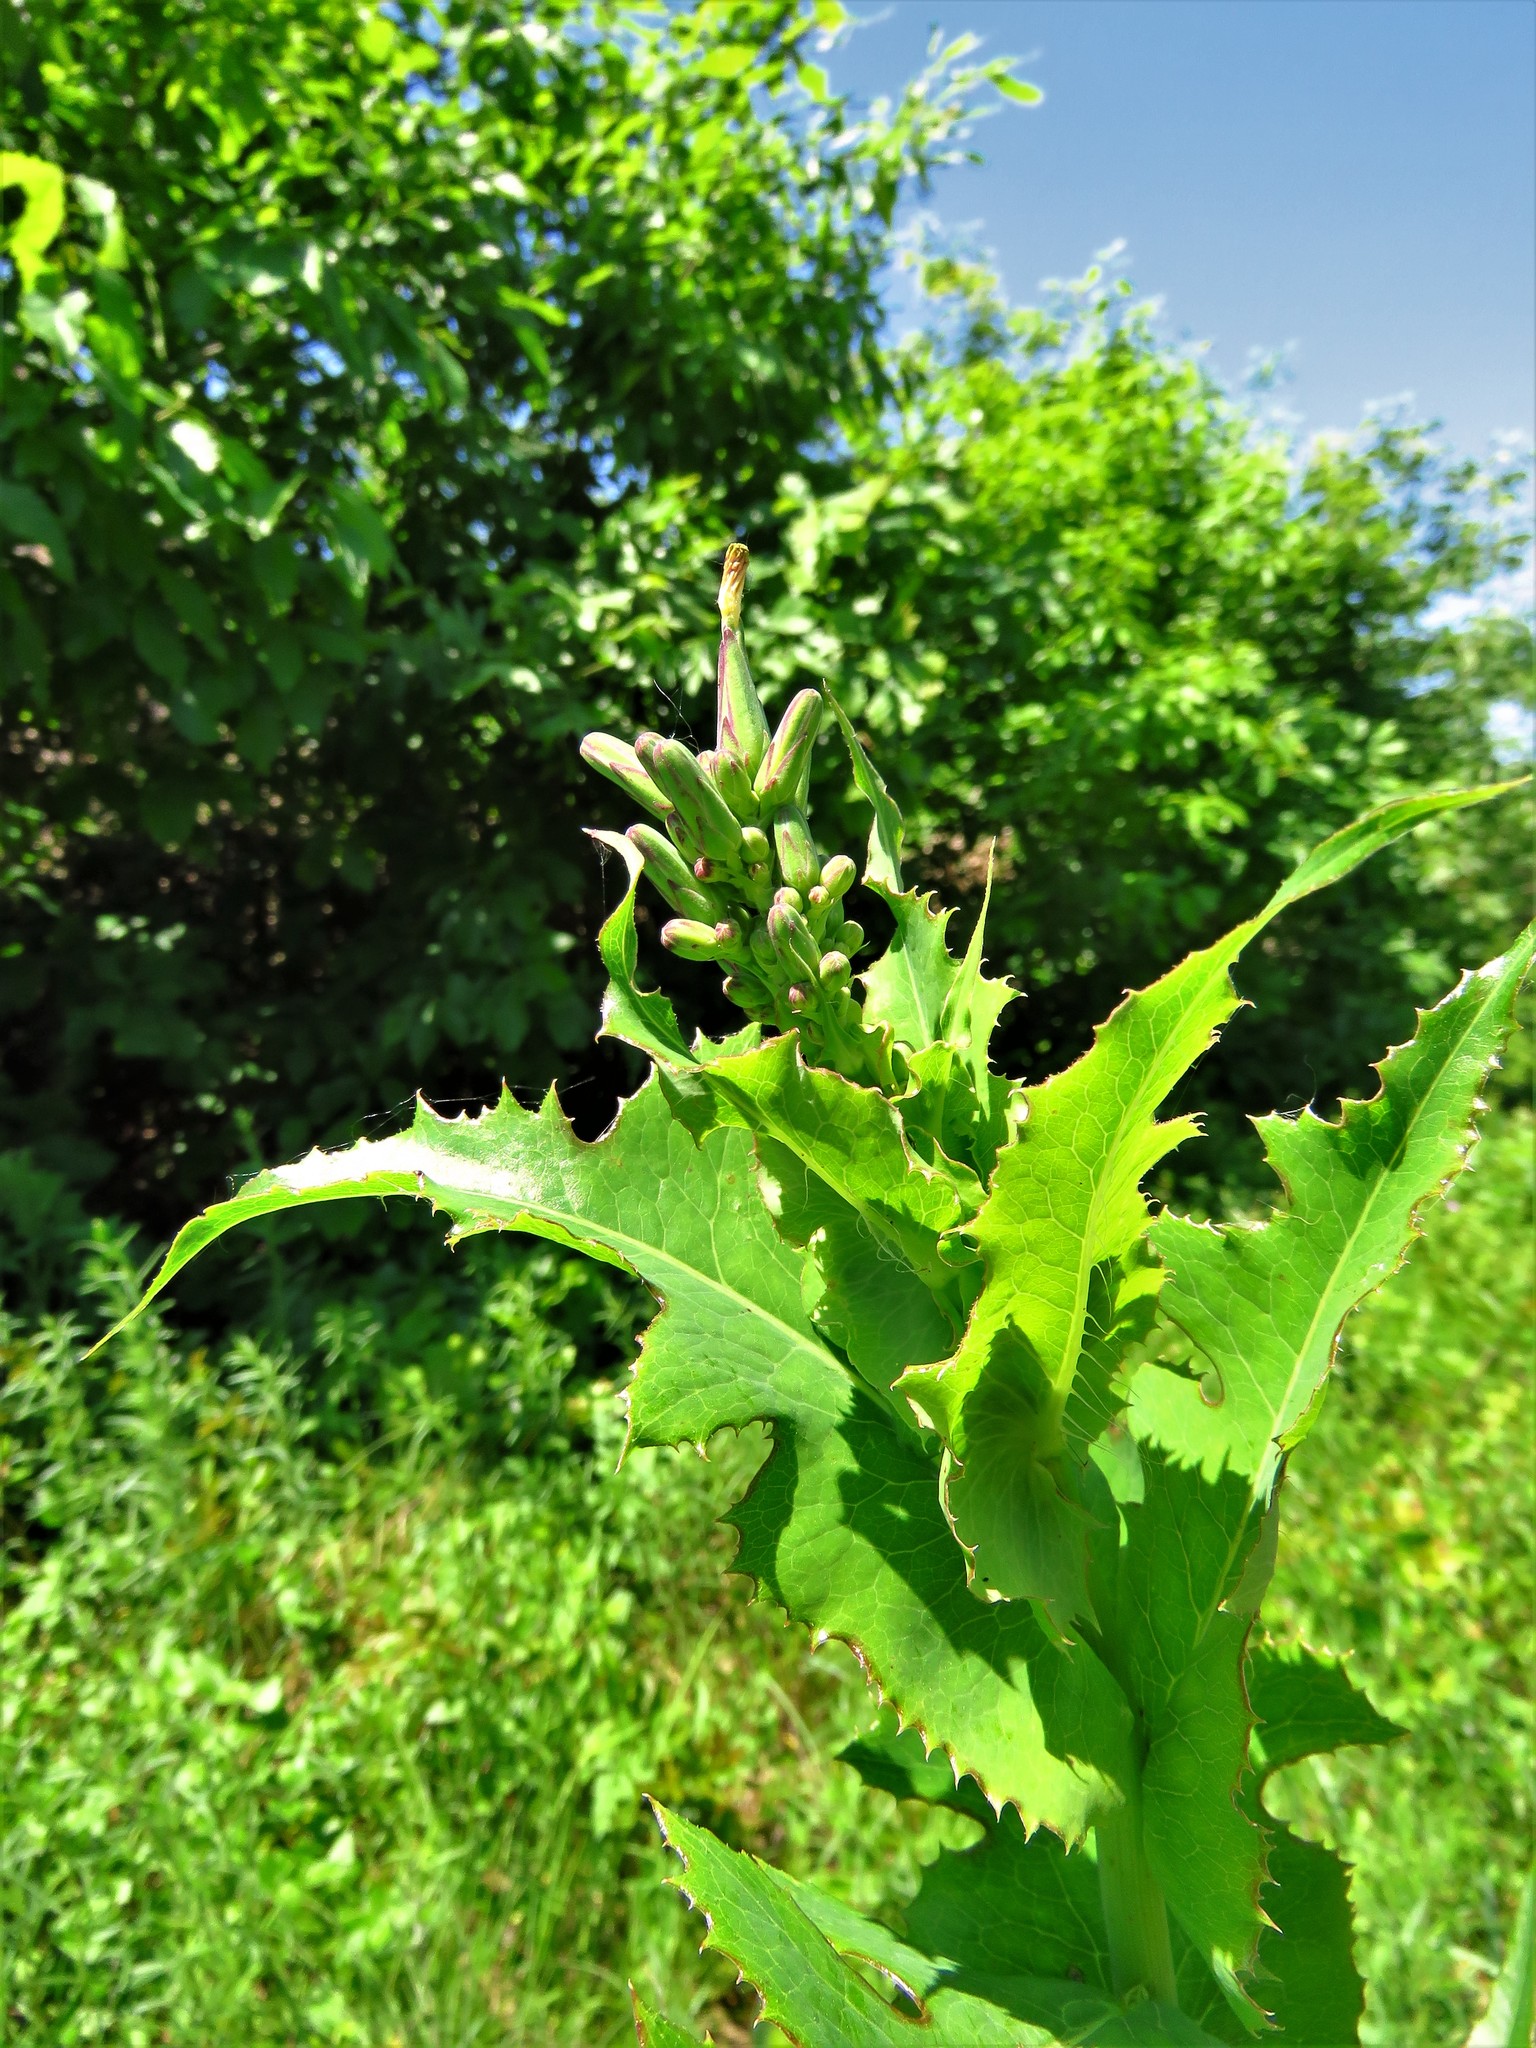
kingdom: Plantae
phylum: Tracheophyta
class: Magnoliopsida
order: Asterales
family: Asteraceae
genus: Sonchus
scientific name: Sonchus asper
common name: Prickly sow-thistle
